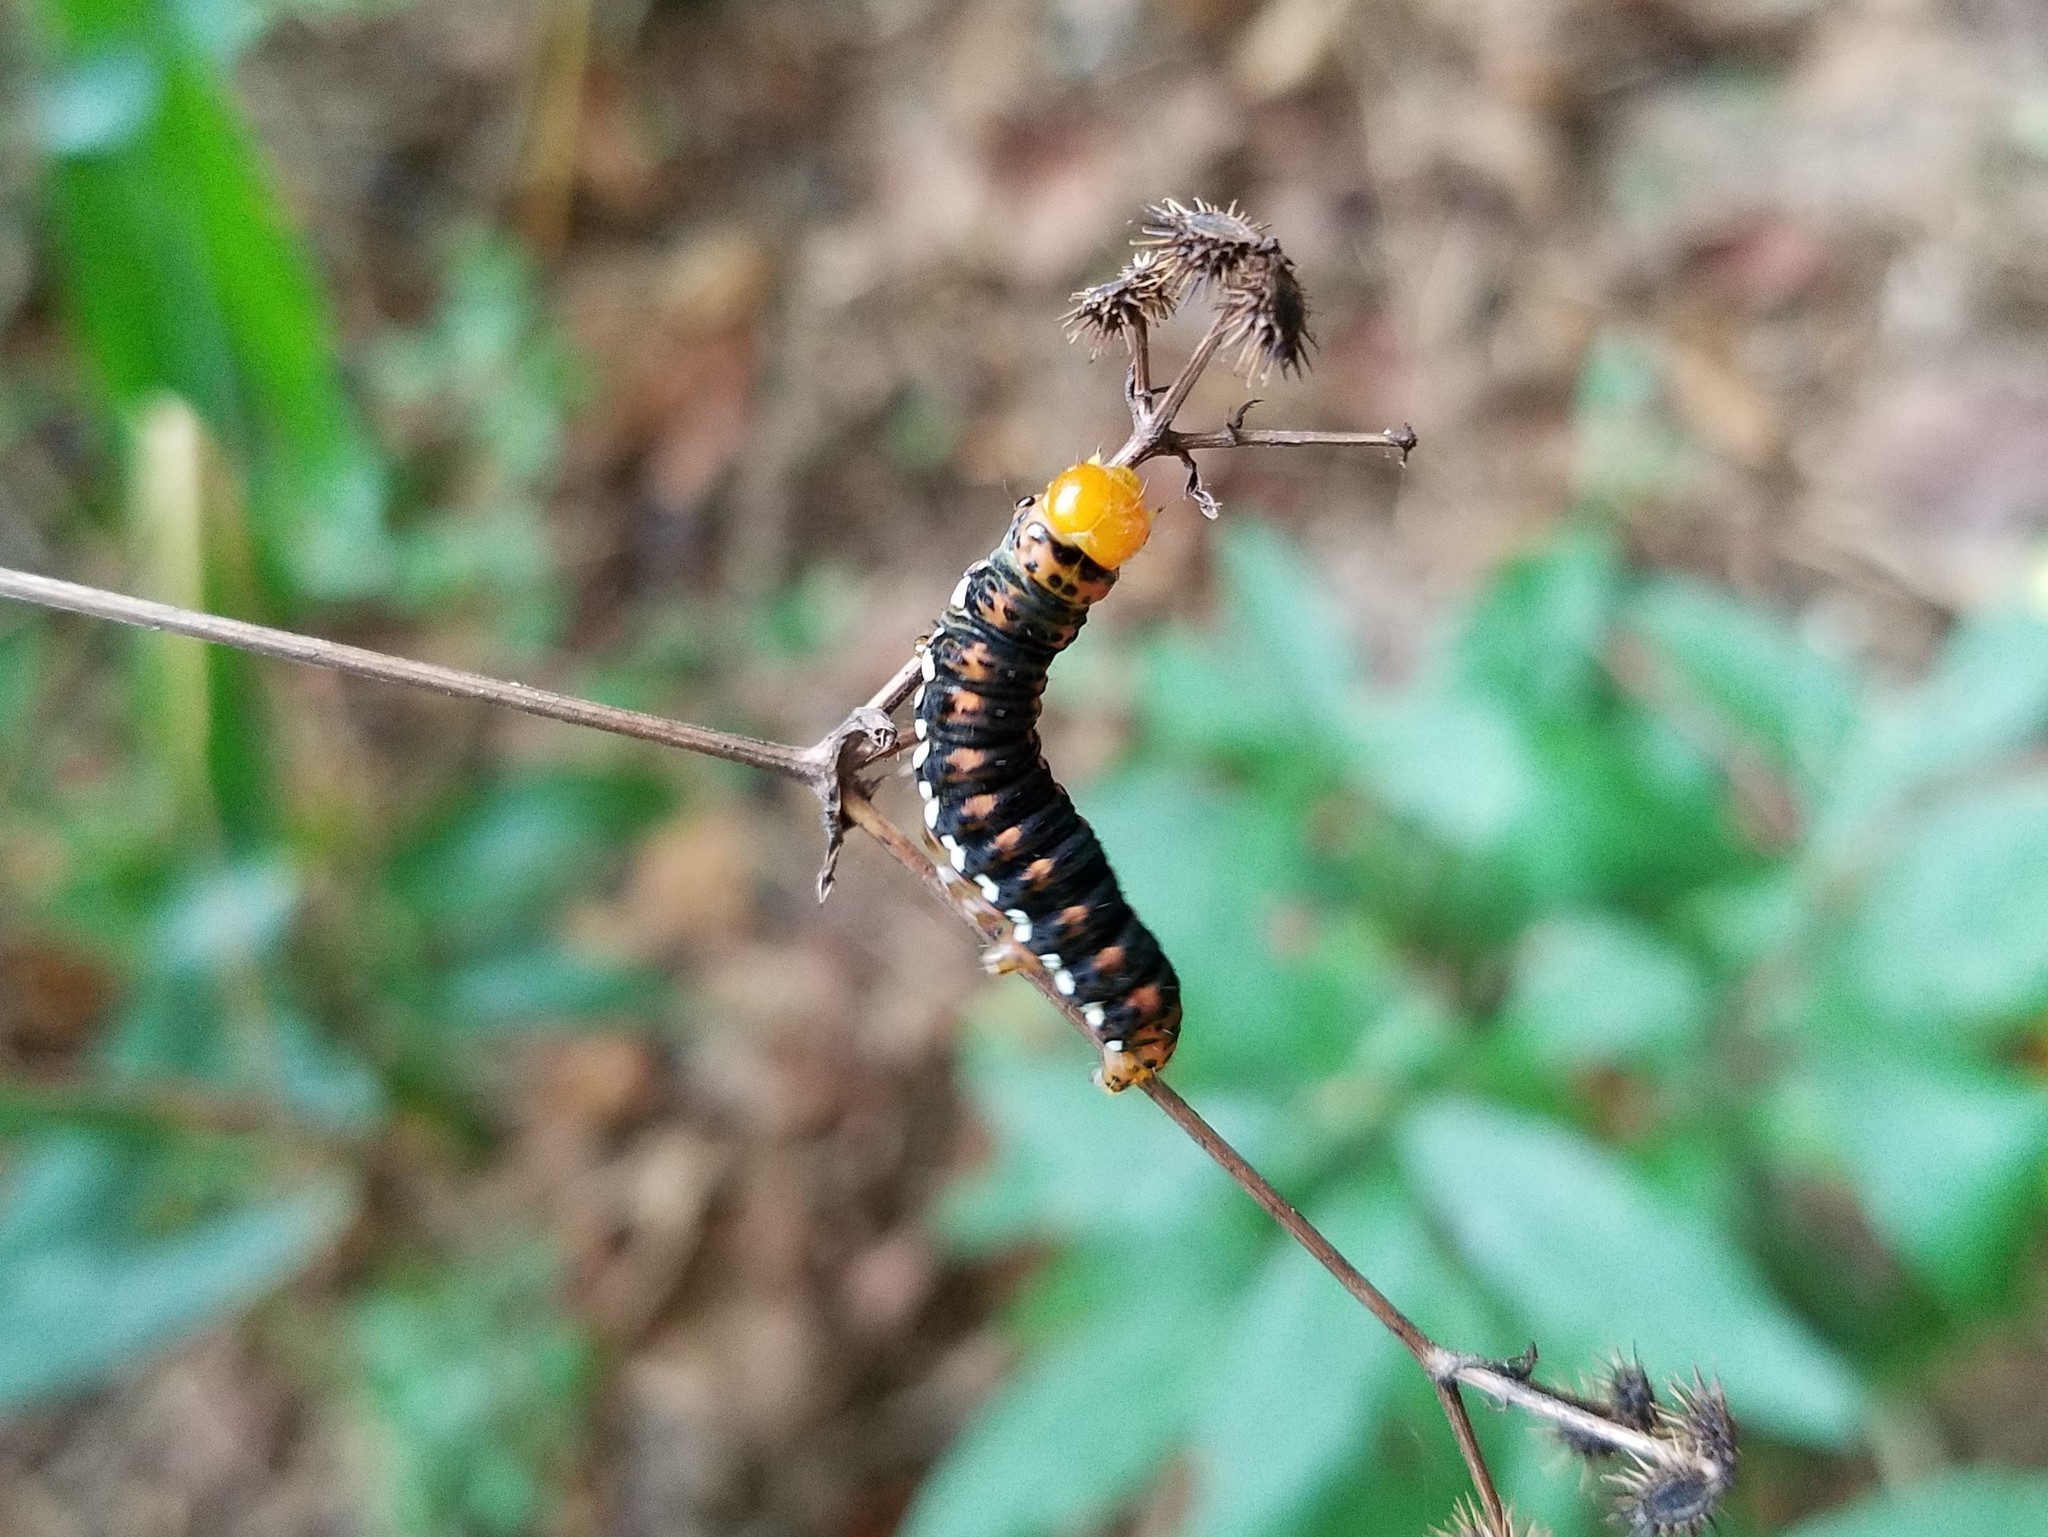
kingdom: Animalia
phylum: Arthropoda
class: Insecta
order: Lepidoptera
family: Noctuidae
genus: Basilodes
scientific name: Basilodes pepita
